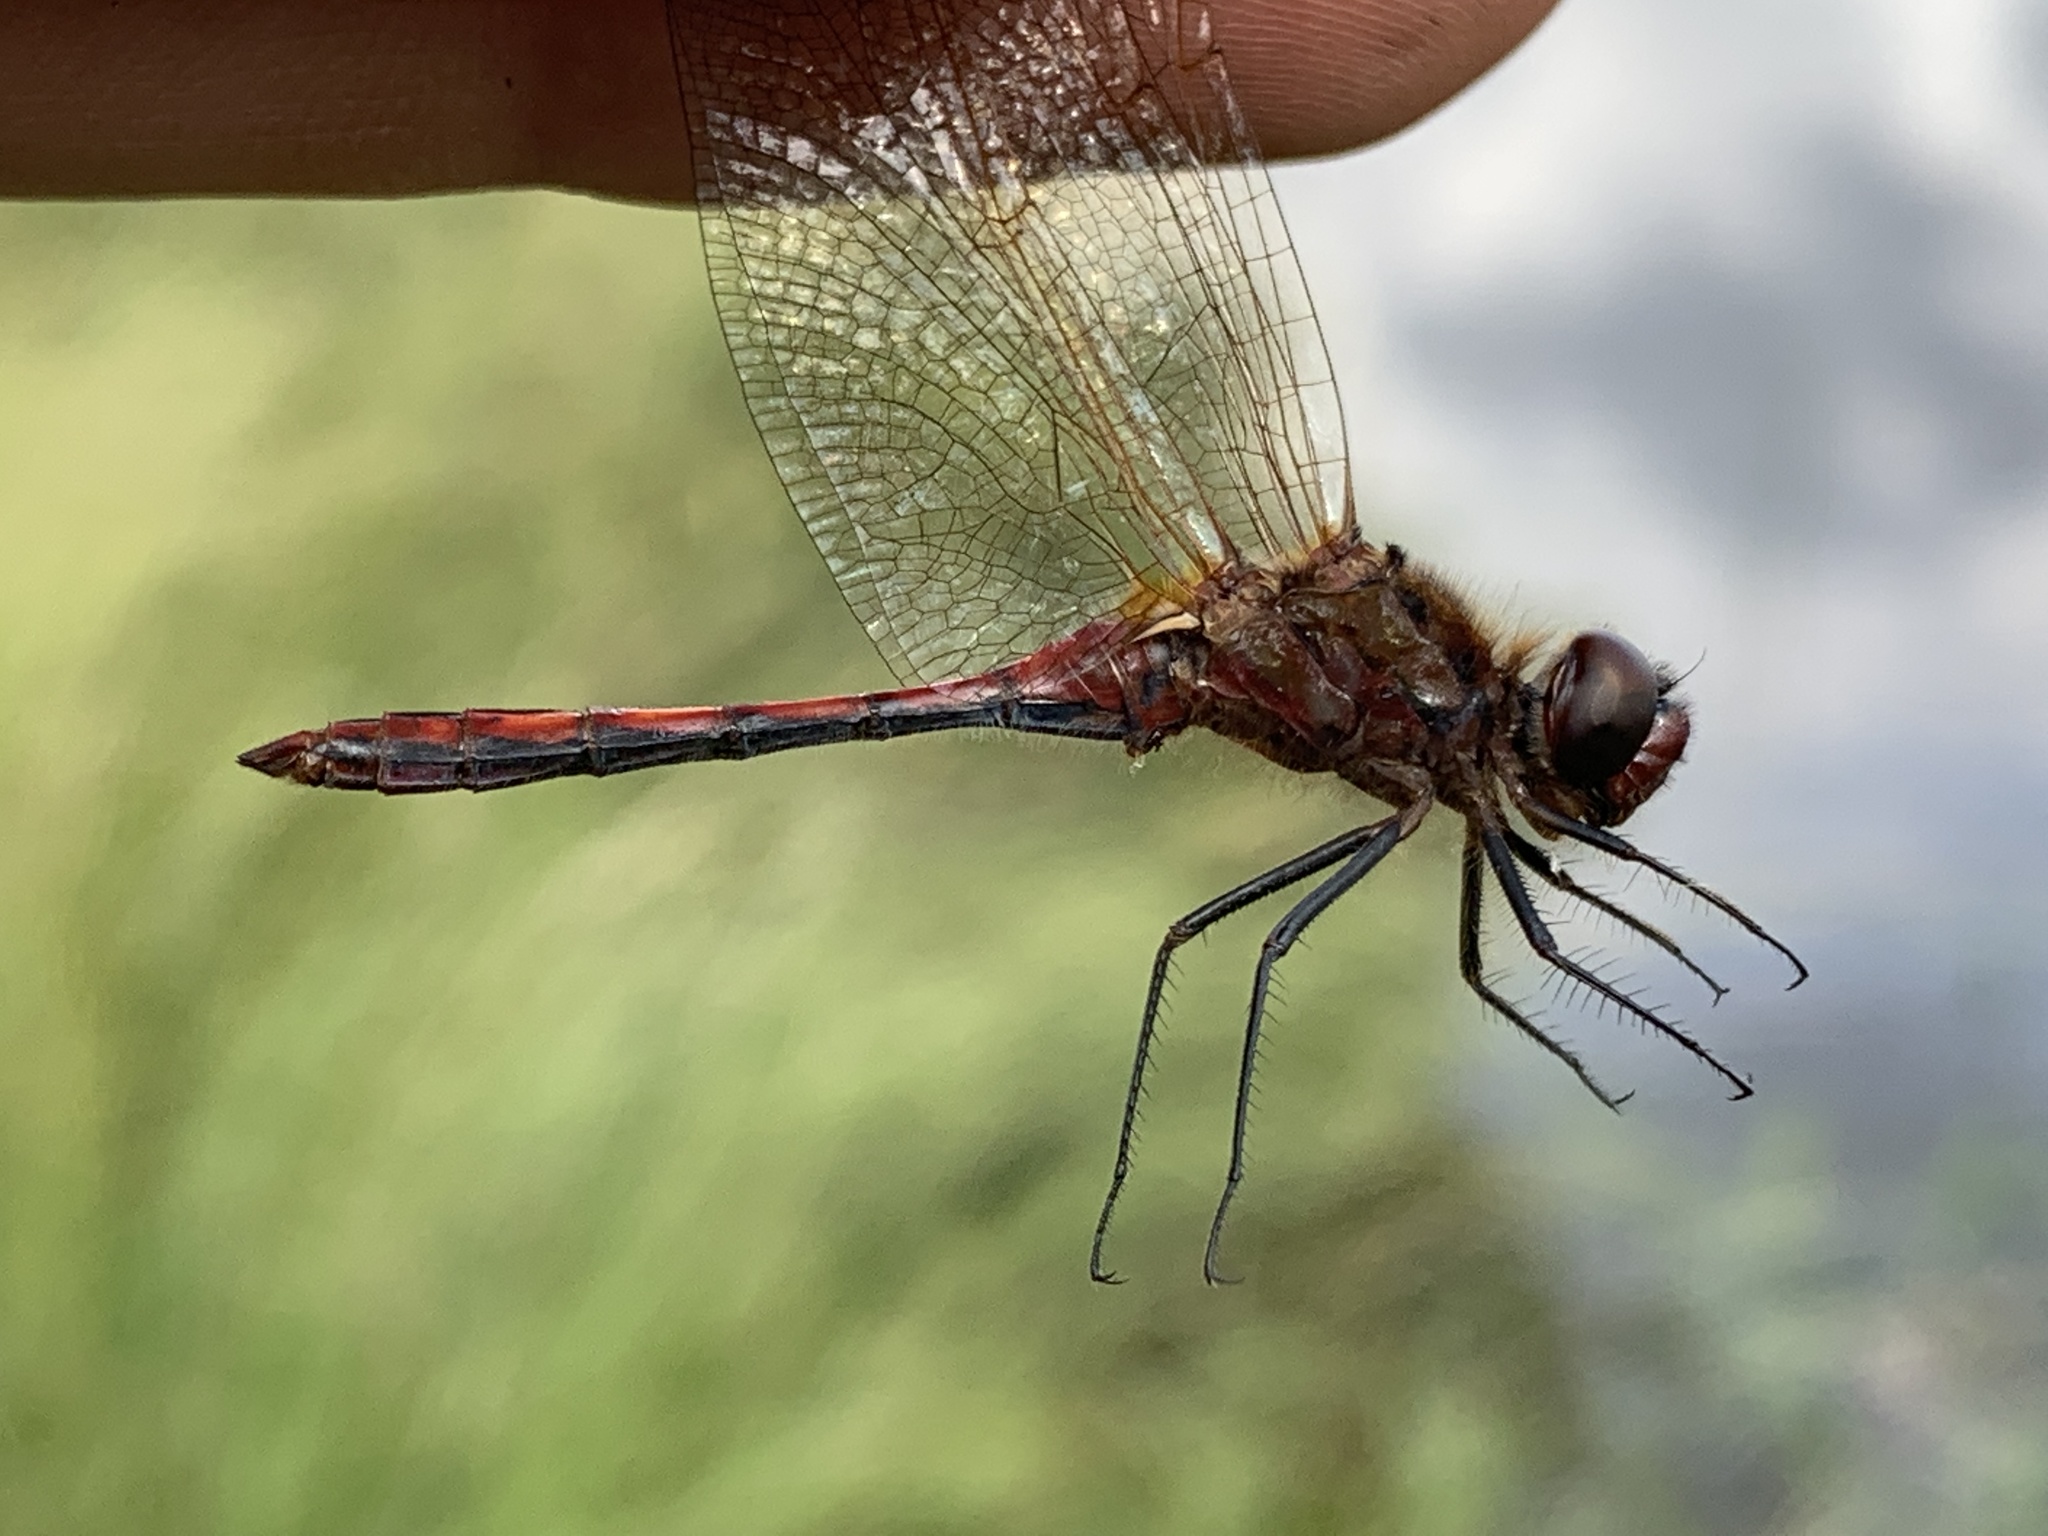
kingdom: Animalia
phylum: Arthropoda
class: Insecta
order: Odonata
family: Libellulidae
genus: Sympetrum
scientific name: Sympetrum costiferum
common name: Saffron-winged meadowhawk
